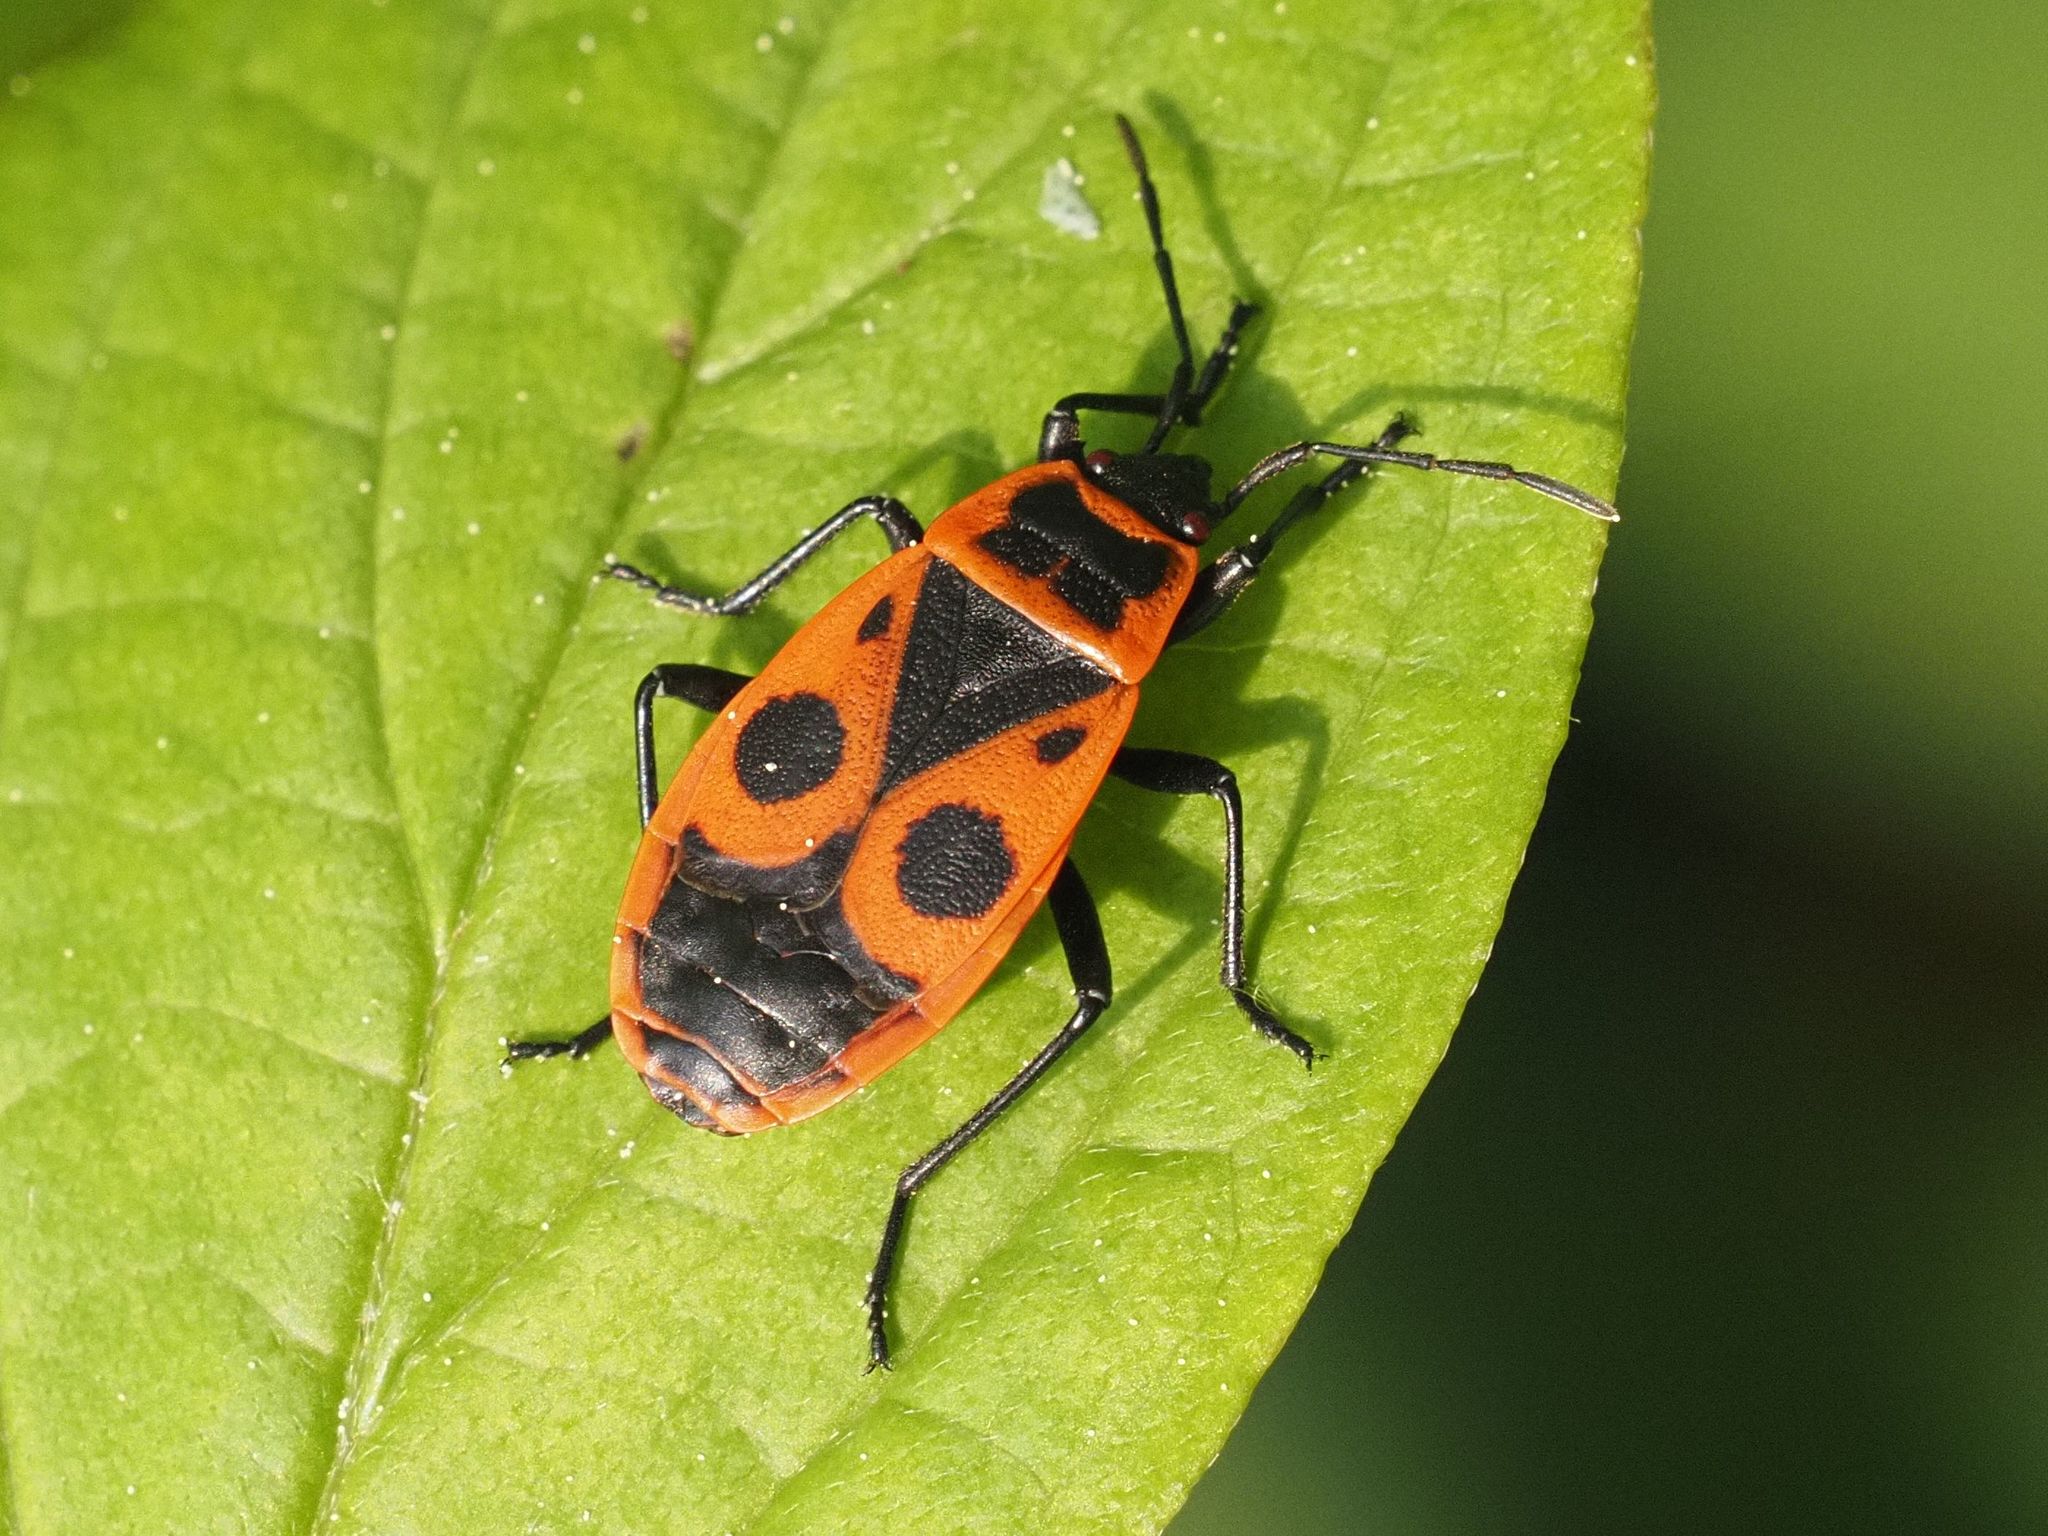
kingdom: Animalia
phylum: Arthropoda
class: Insecta
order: Hemiptera
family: Pyrrhocoridae
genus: Pyrrhocoris
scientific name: Pyrrhocoris apterus
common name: Firebug
